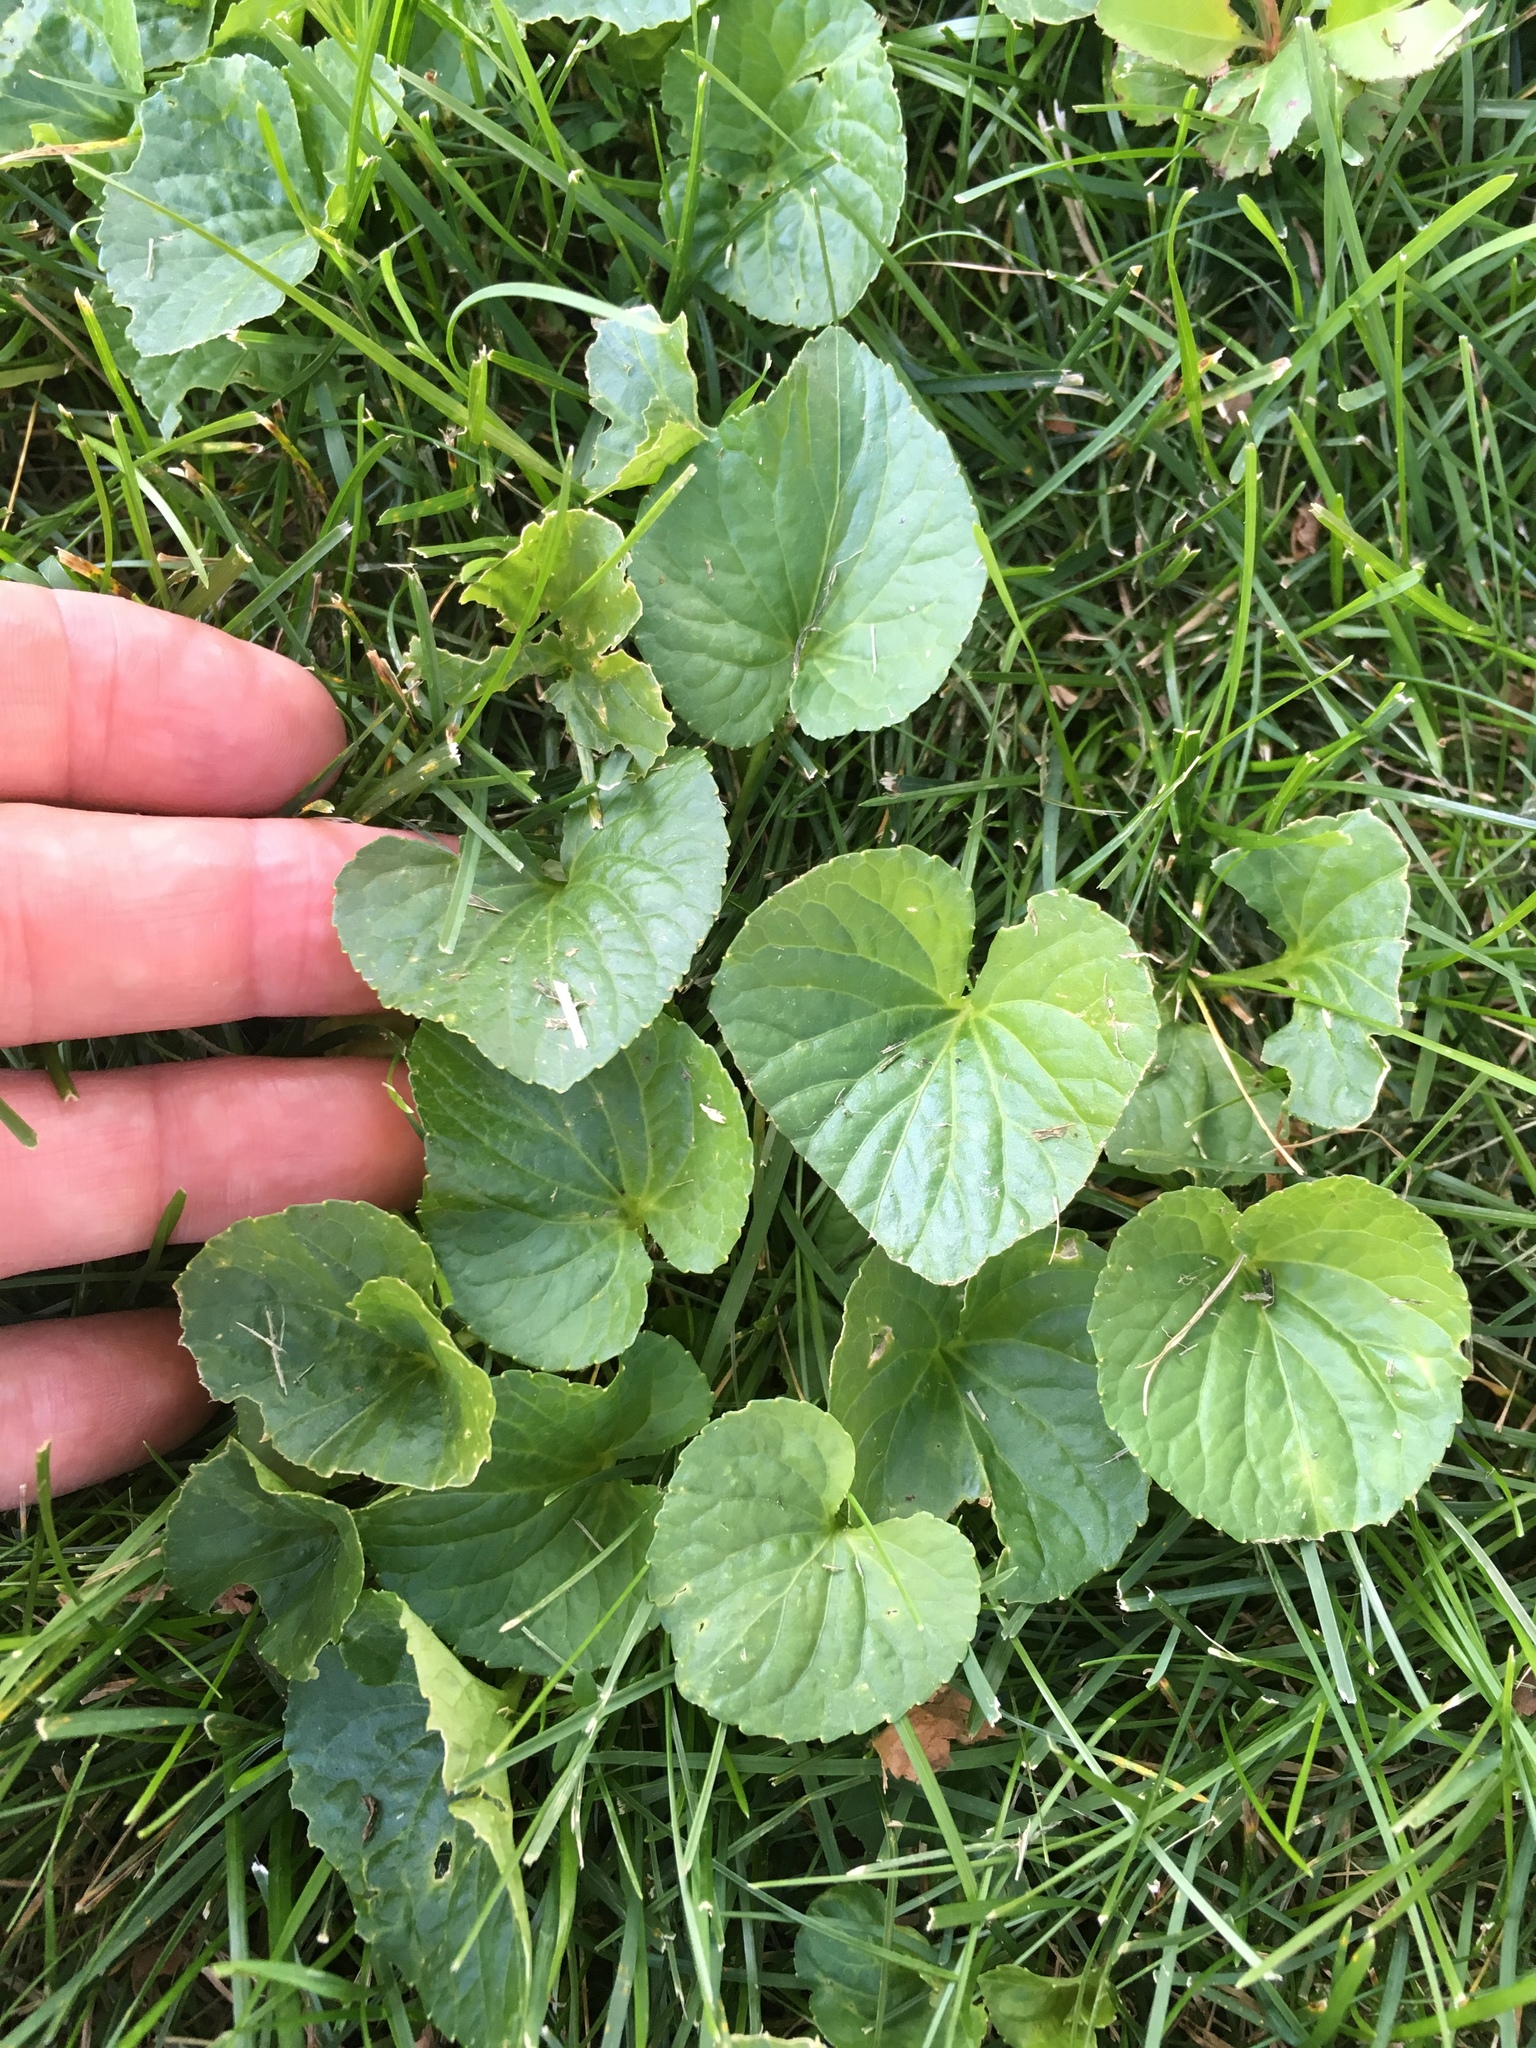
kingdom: Plantae
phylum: Tracheophyta
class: Magnoliopsida
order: Malpighiales
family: Violaceae
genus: Viola
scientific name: Viola sororia
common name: Dooryard violet
